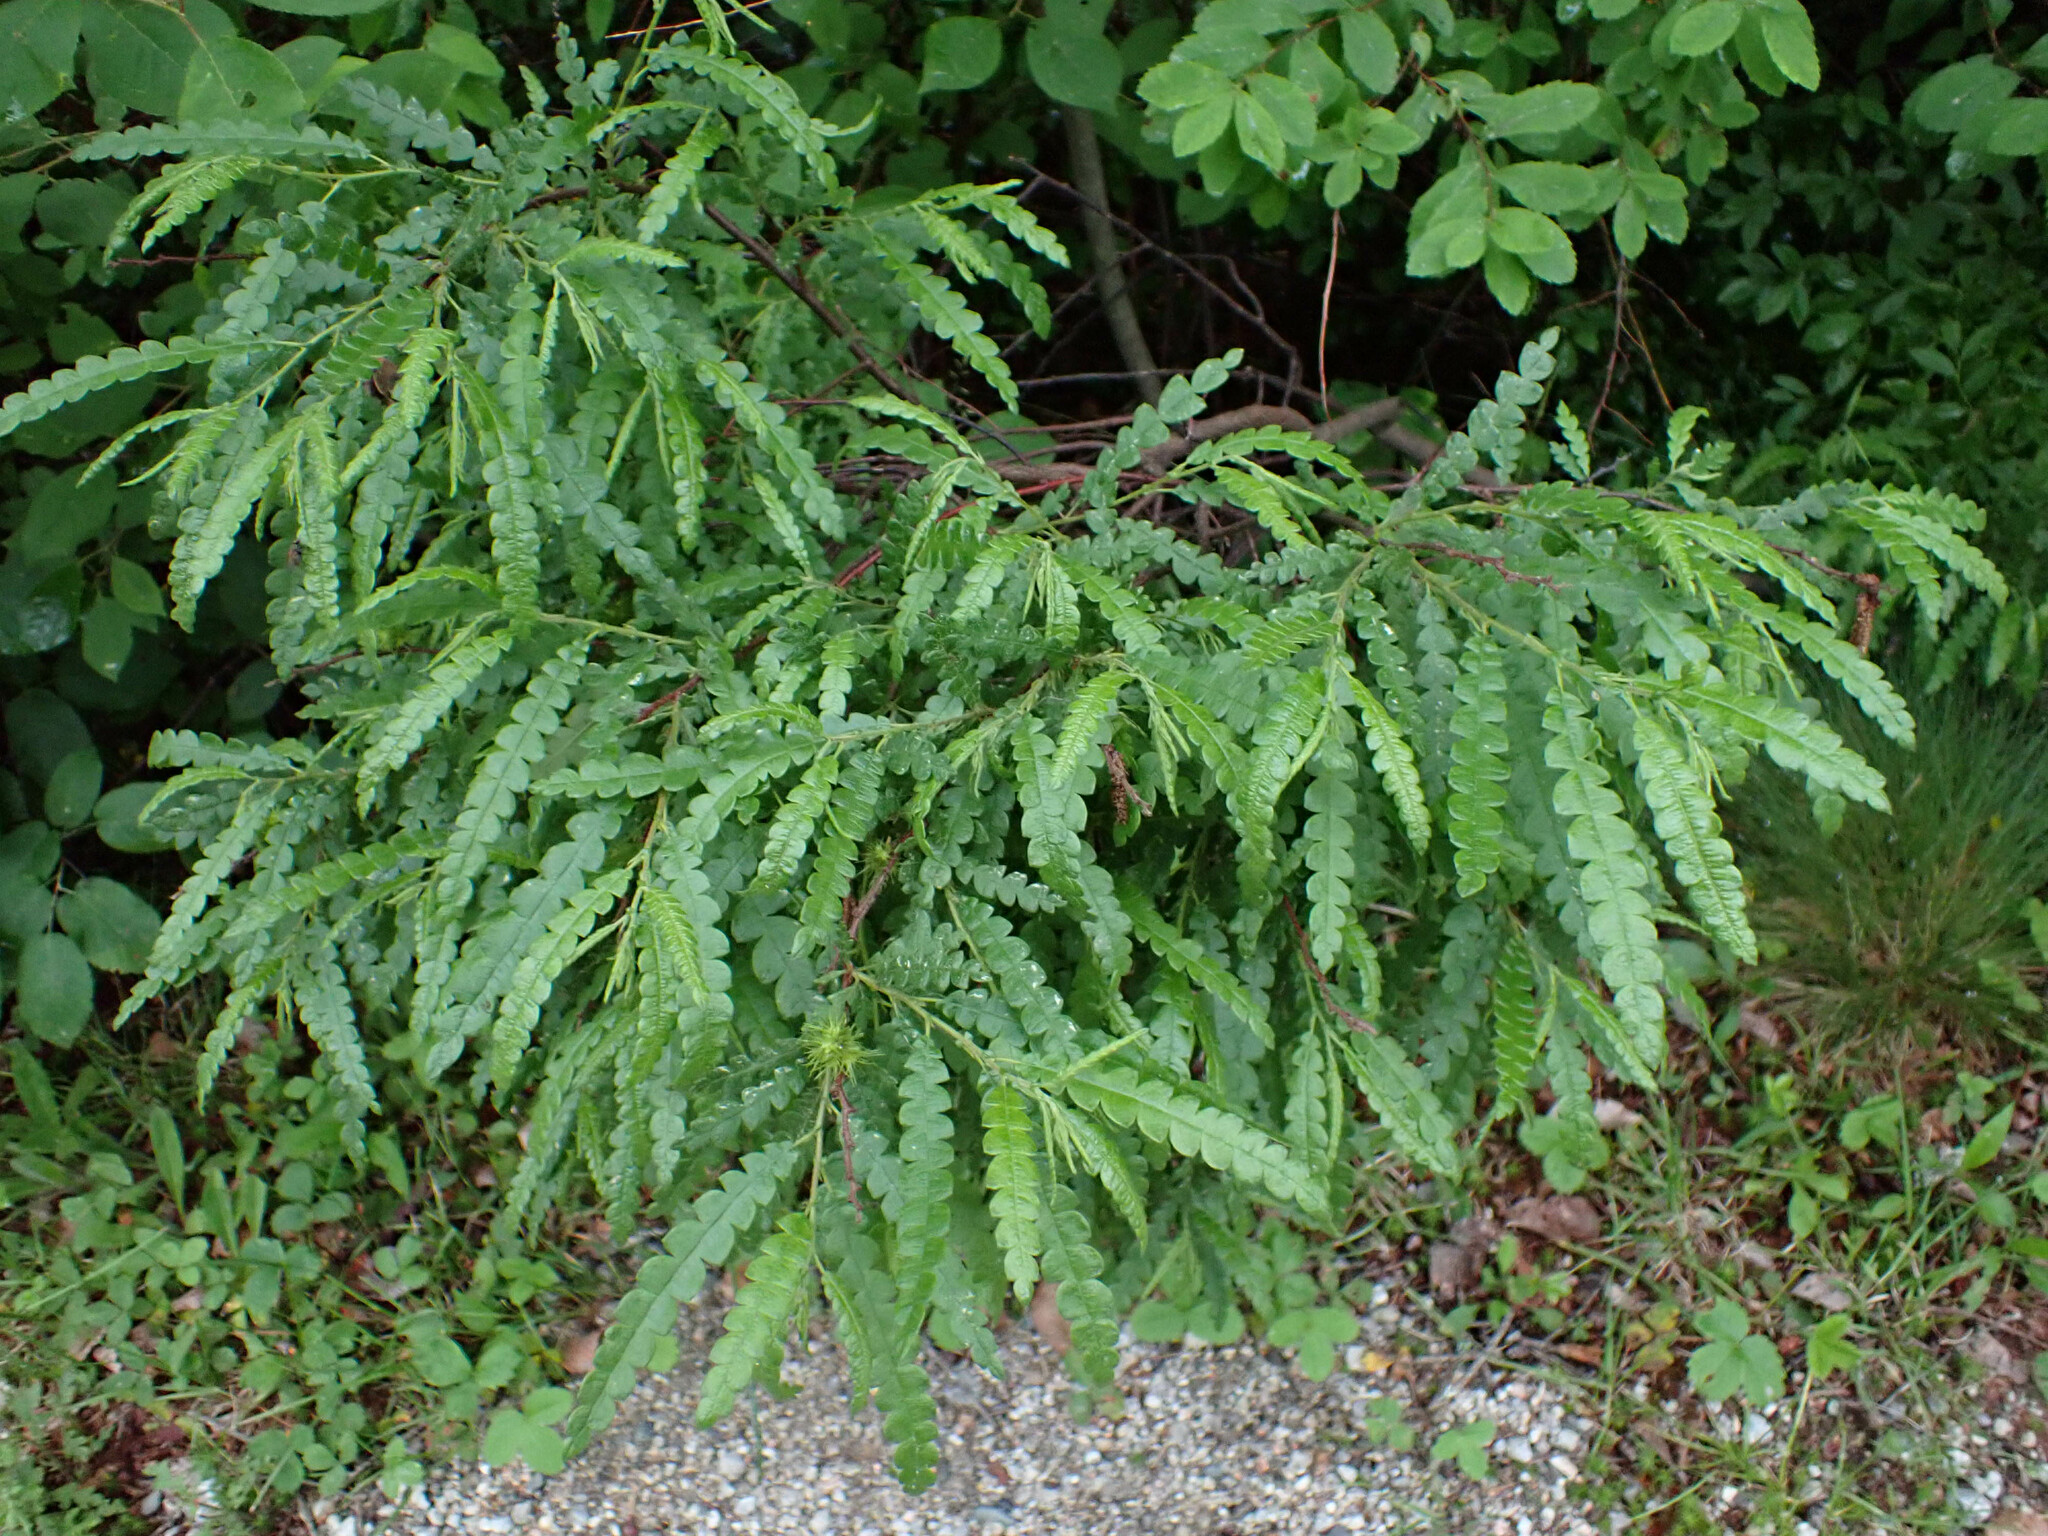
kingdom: Plantae
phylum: Tracheophyta
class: Magnoliopsida
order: Fagales
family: Myricaceae
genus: Comptonia
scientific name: Comptonia peregrina
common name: Sweet-fern
